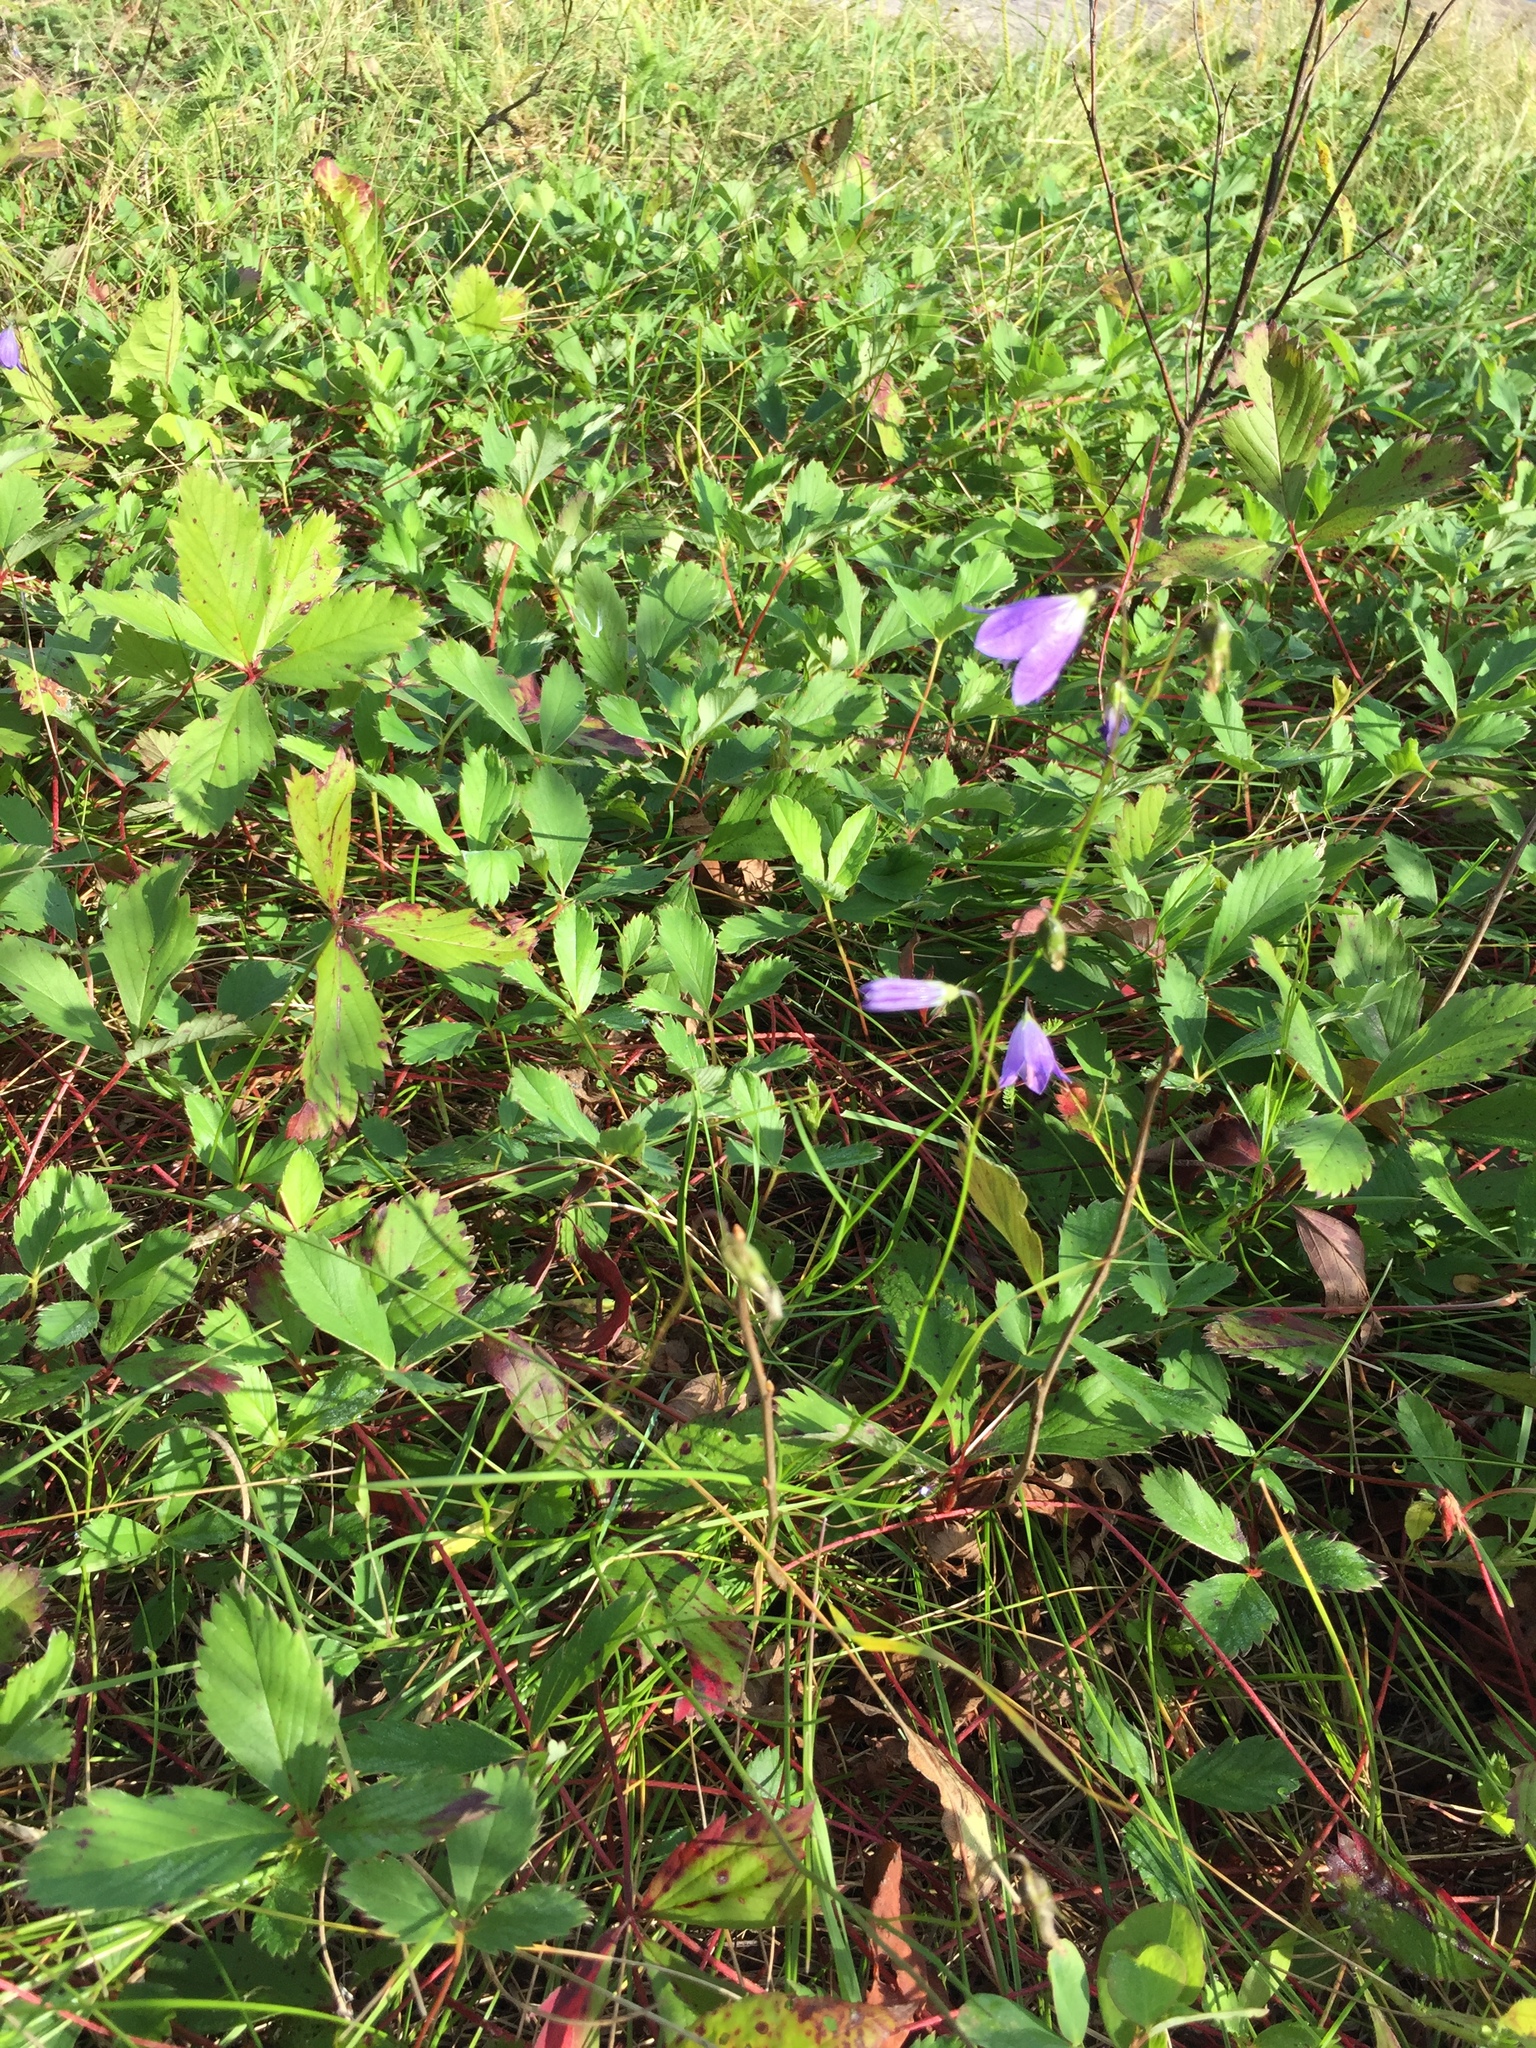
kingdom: Plantae
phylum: Tracheophyta
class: Magnoliopsida
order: Asterales
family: Campanulaceae
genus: Campanula
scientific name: Campanula petiolata
